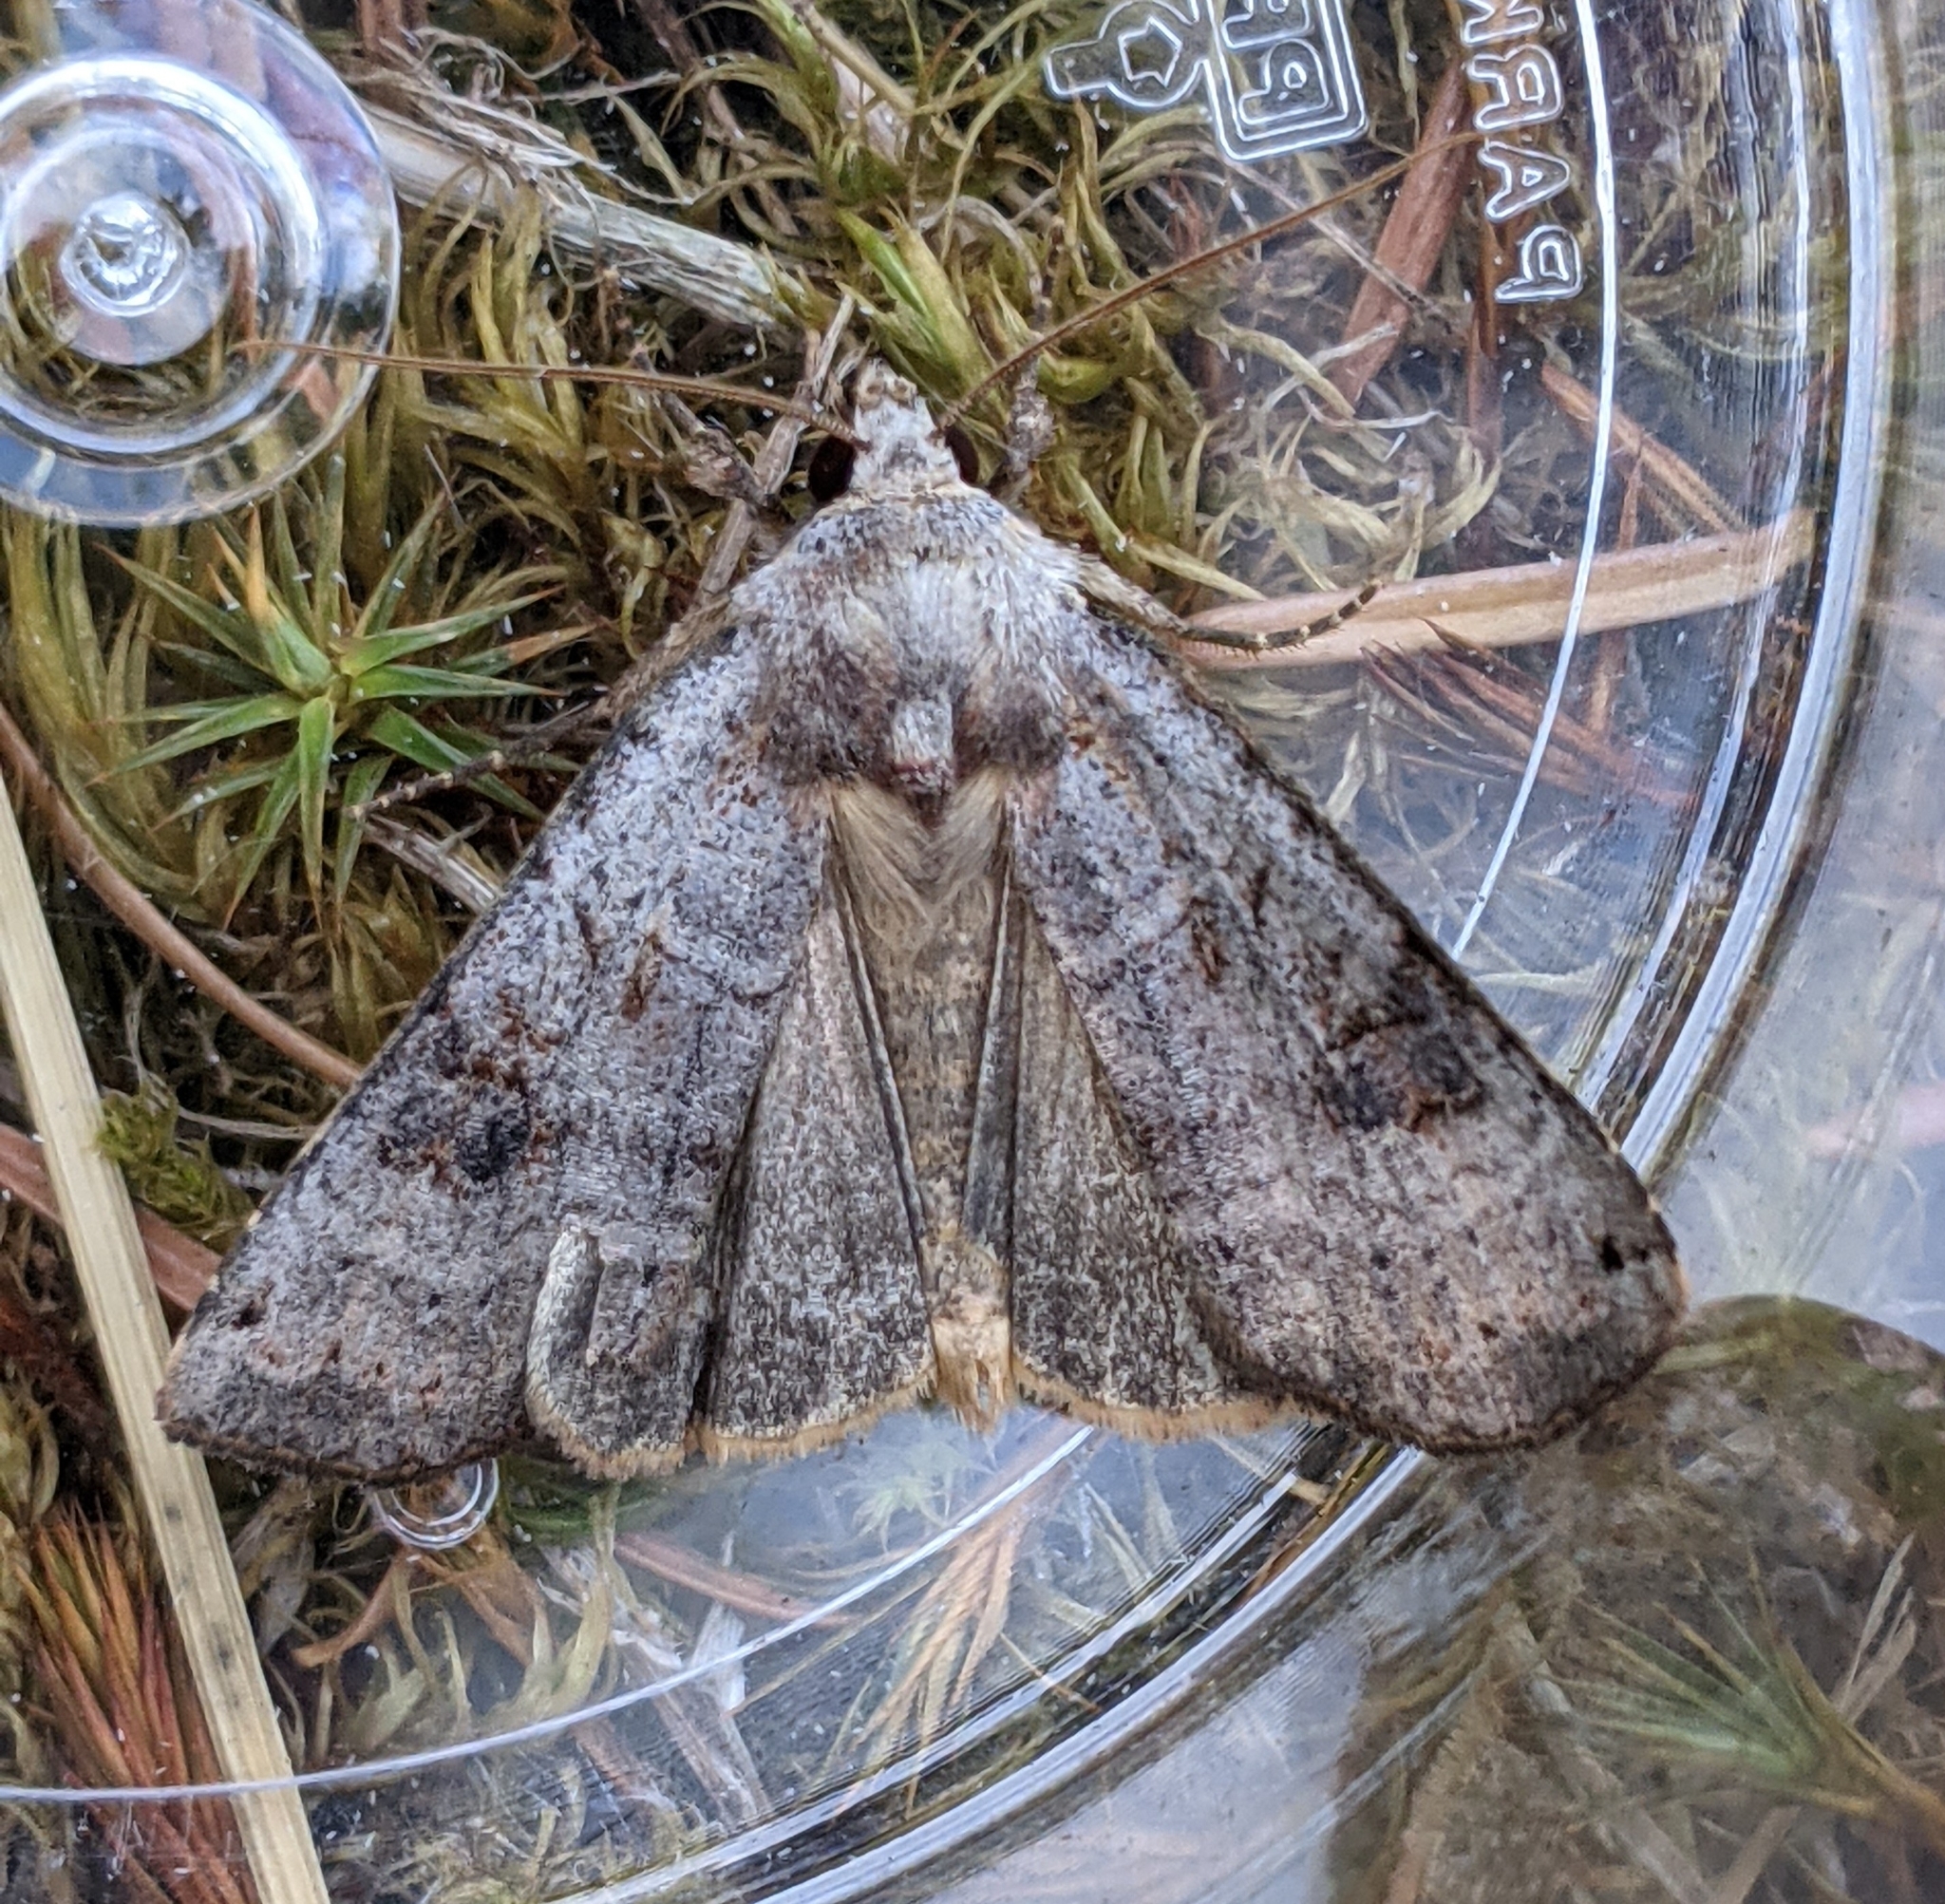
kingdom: Animalia
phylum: Arthropoda
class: Insecta
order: Lepidoptera
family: Noctuidae
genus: Xestia
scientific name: Xestia smithii
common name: Smith's dart
